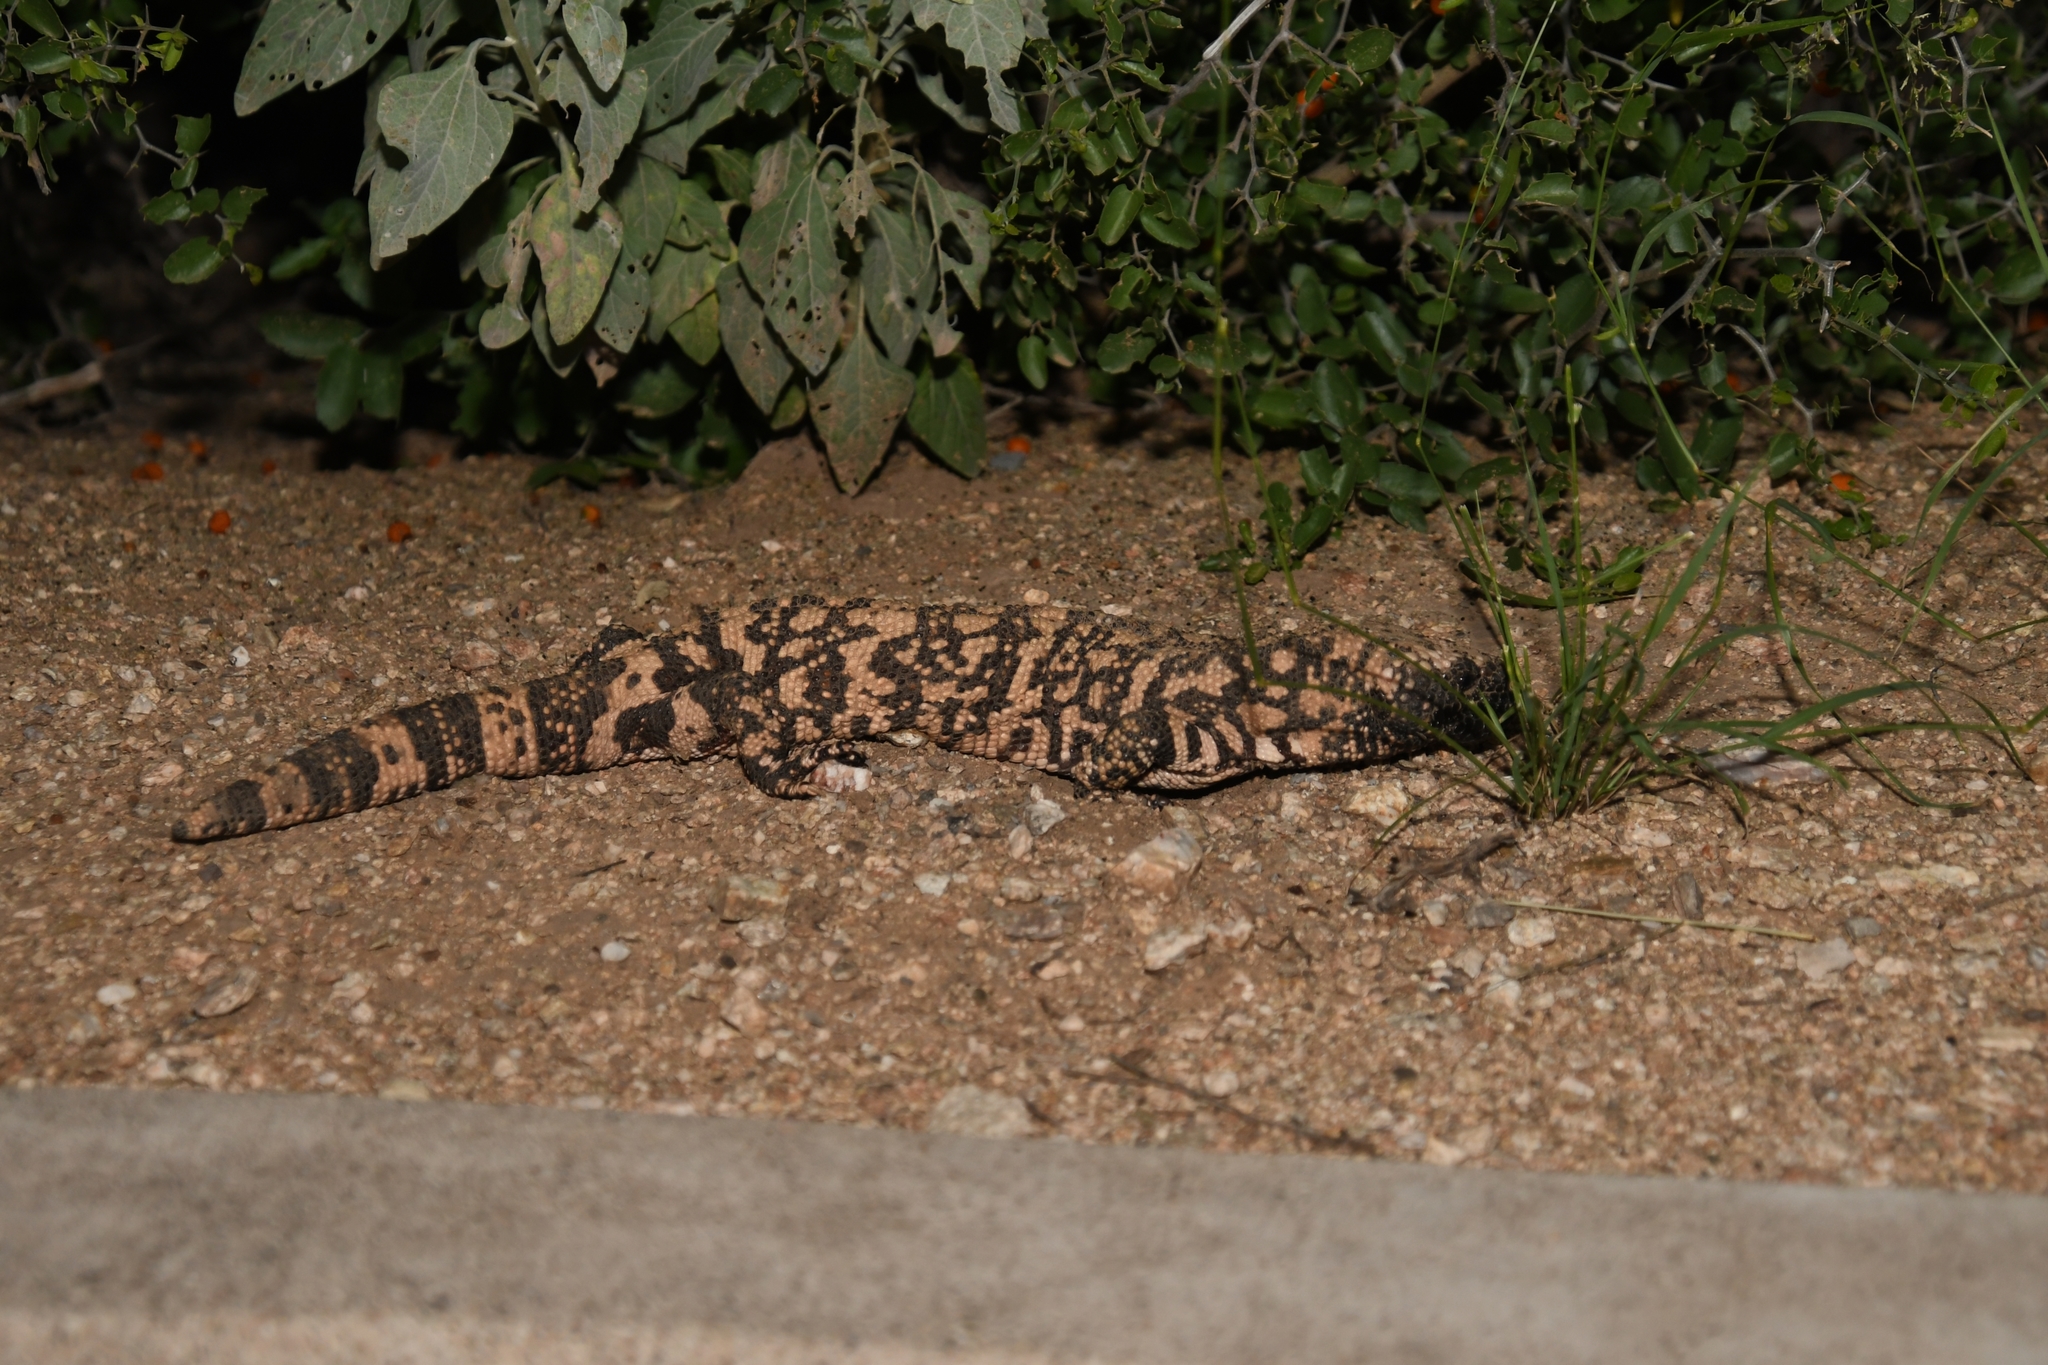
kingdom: Animalia
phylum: Chordata
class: Squamata
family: Helodermatidae
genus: Heloderma
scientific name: Heloderma suspectum
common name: Gila monster
